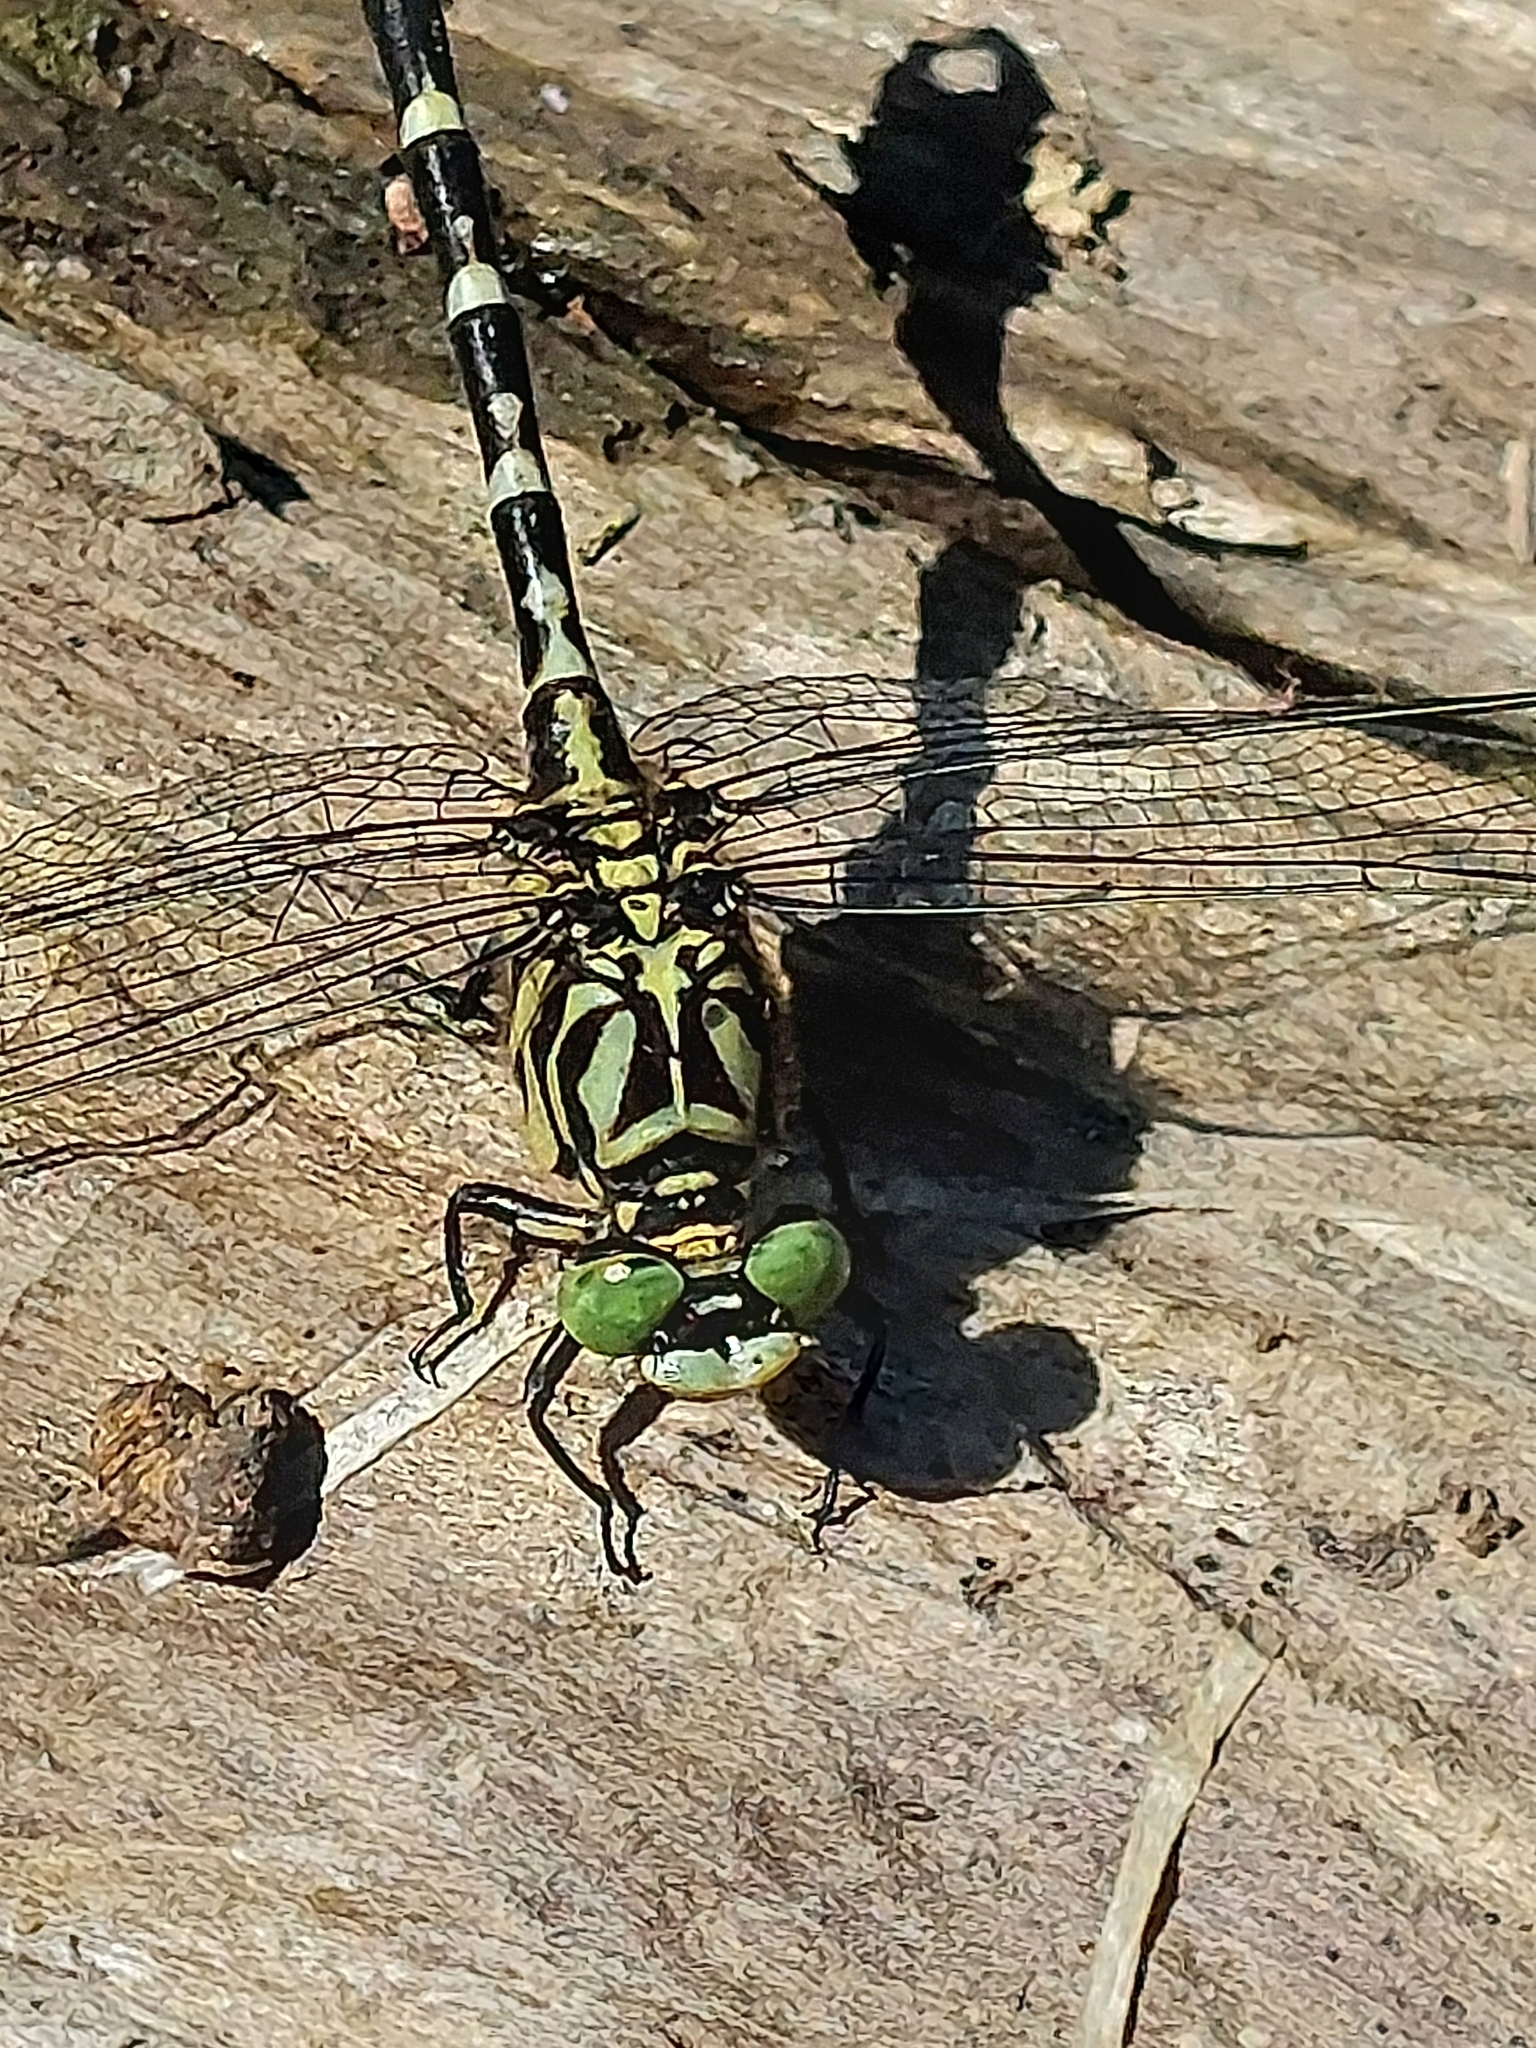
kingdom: Animalia
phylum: Arthropoda
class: Insecta
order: Odonata
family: Gomphidae
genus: Onychogomphus
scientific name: Onychogomphus forcipatus
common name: Small pincertail
